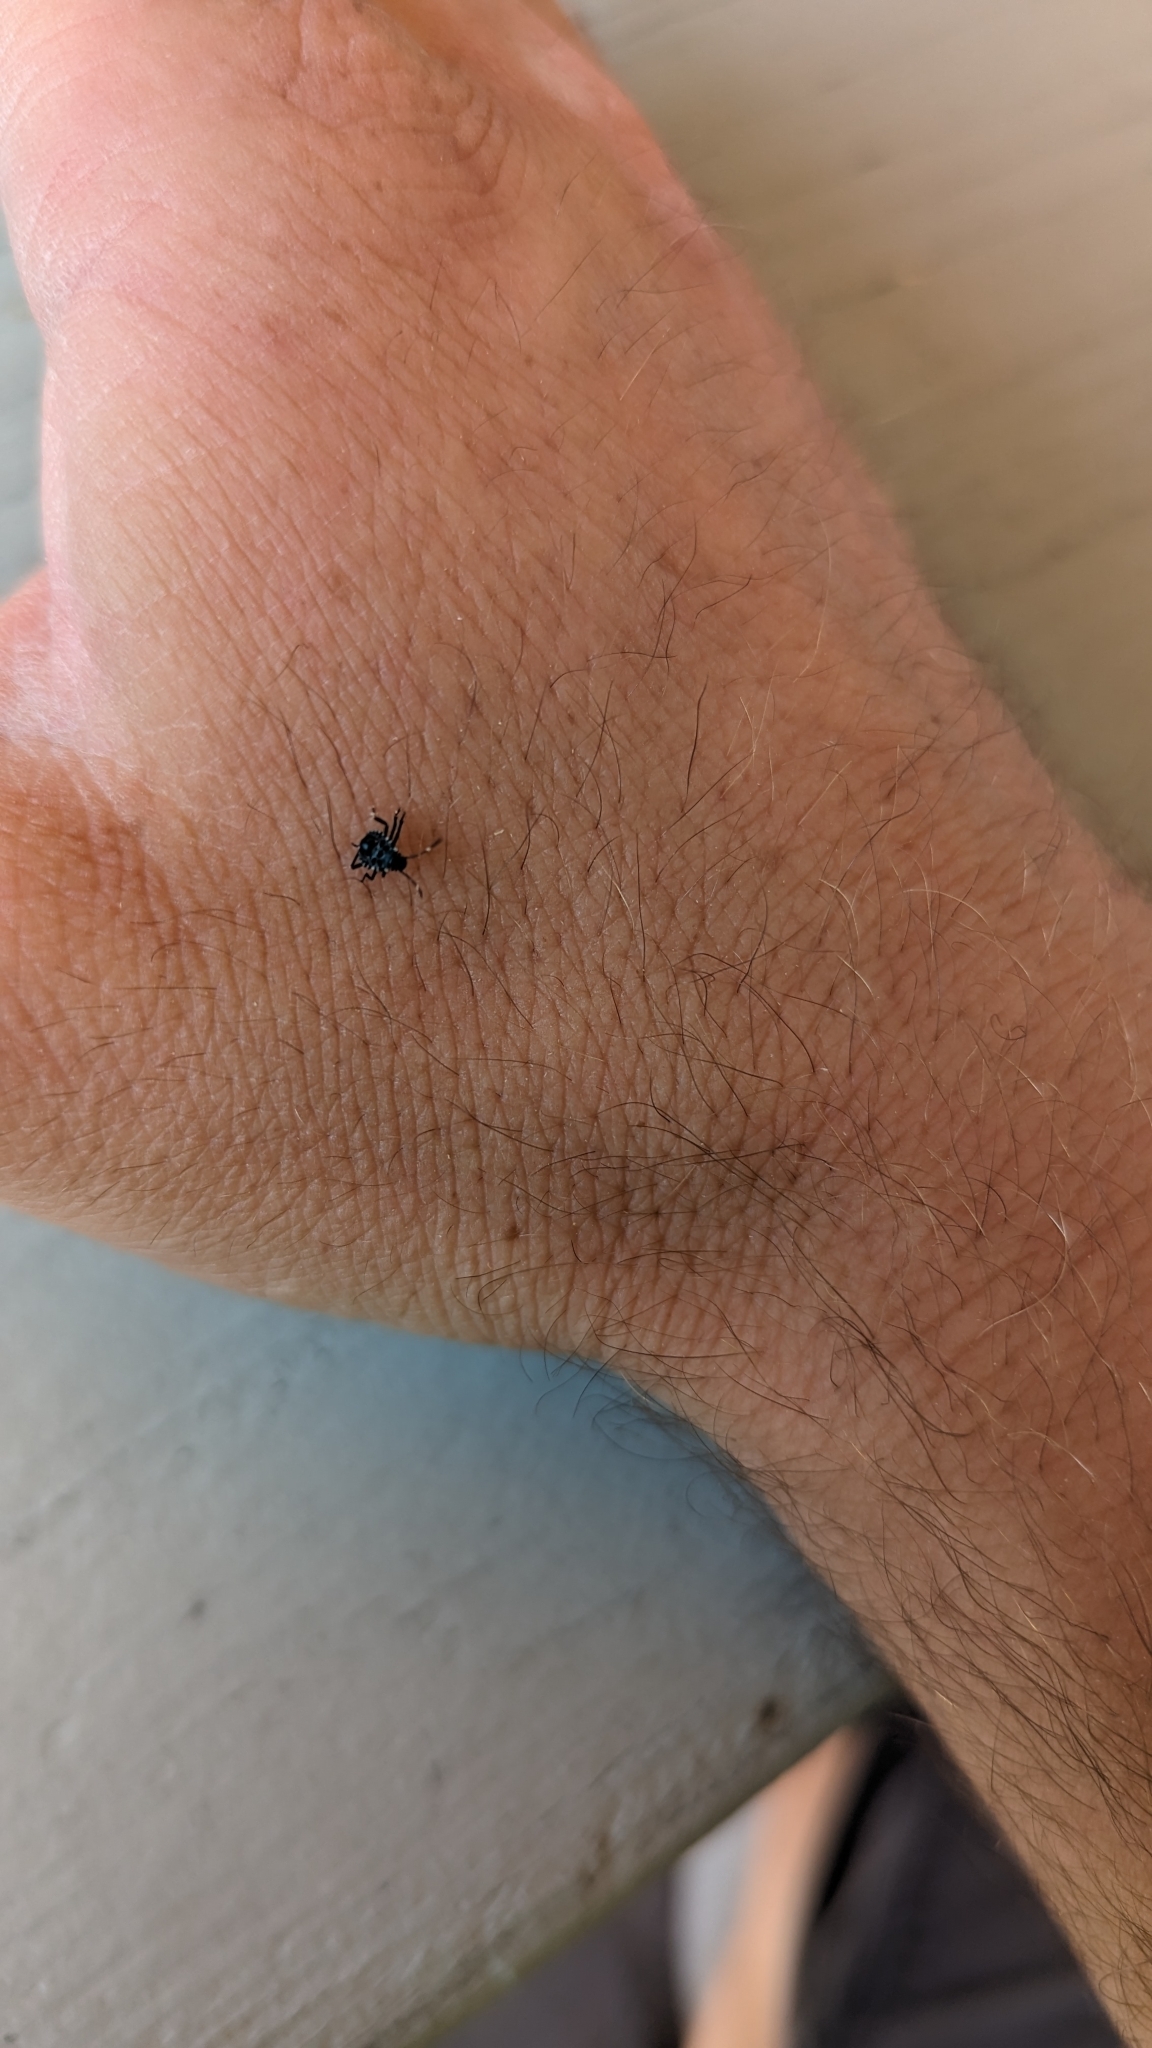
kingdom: Animalia
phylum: Arthropoda
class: Insecta
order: Hemiptera
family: Pentatomidae
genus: Halyomorpha
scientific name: Halyomorpha halys
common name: Brown marmorated stink bug
